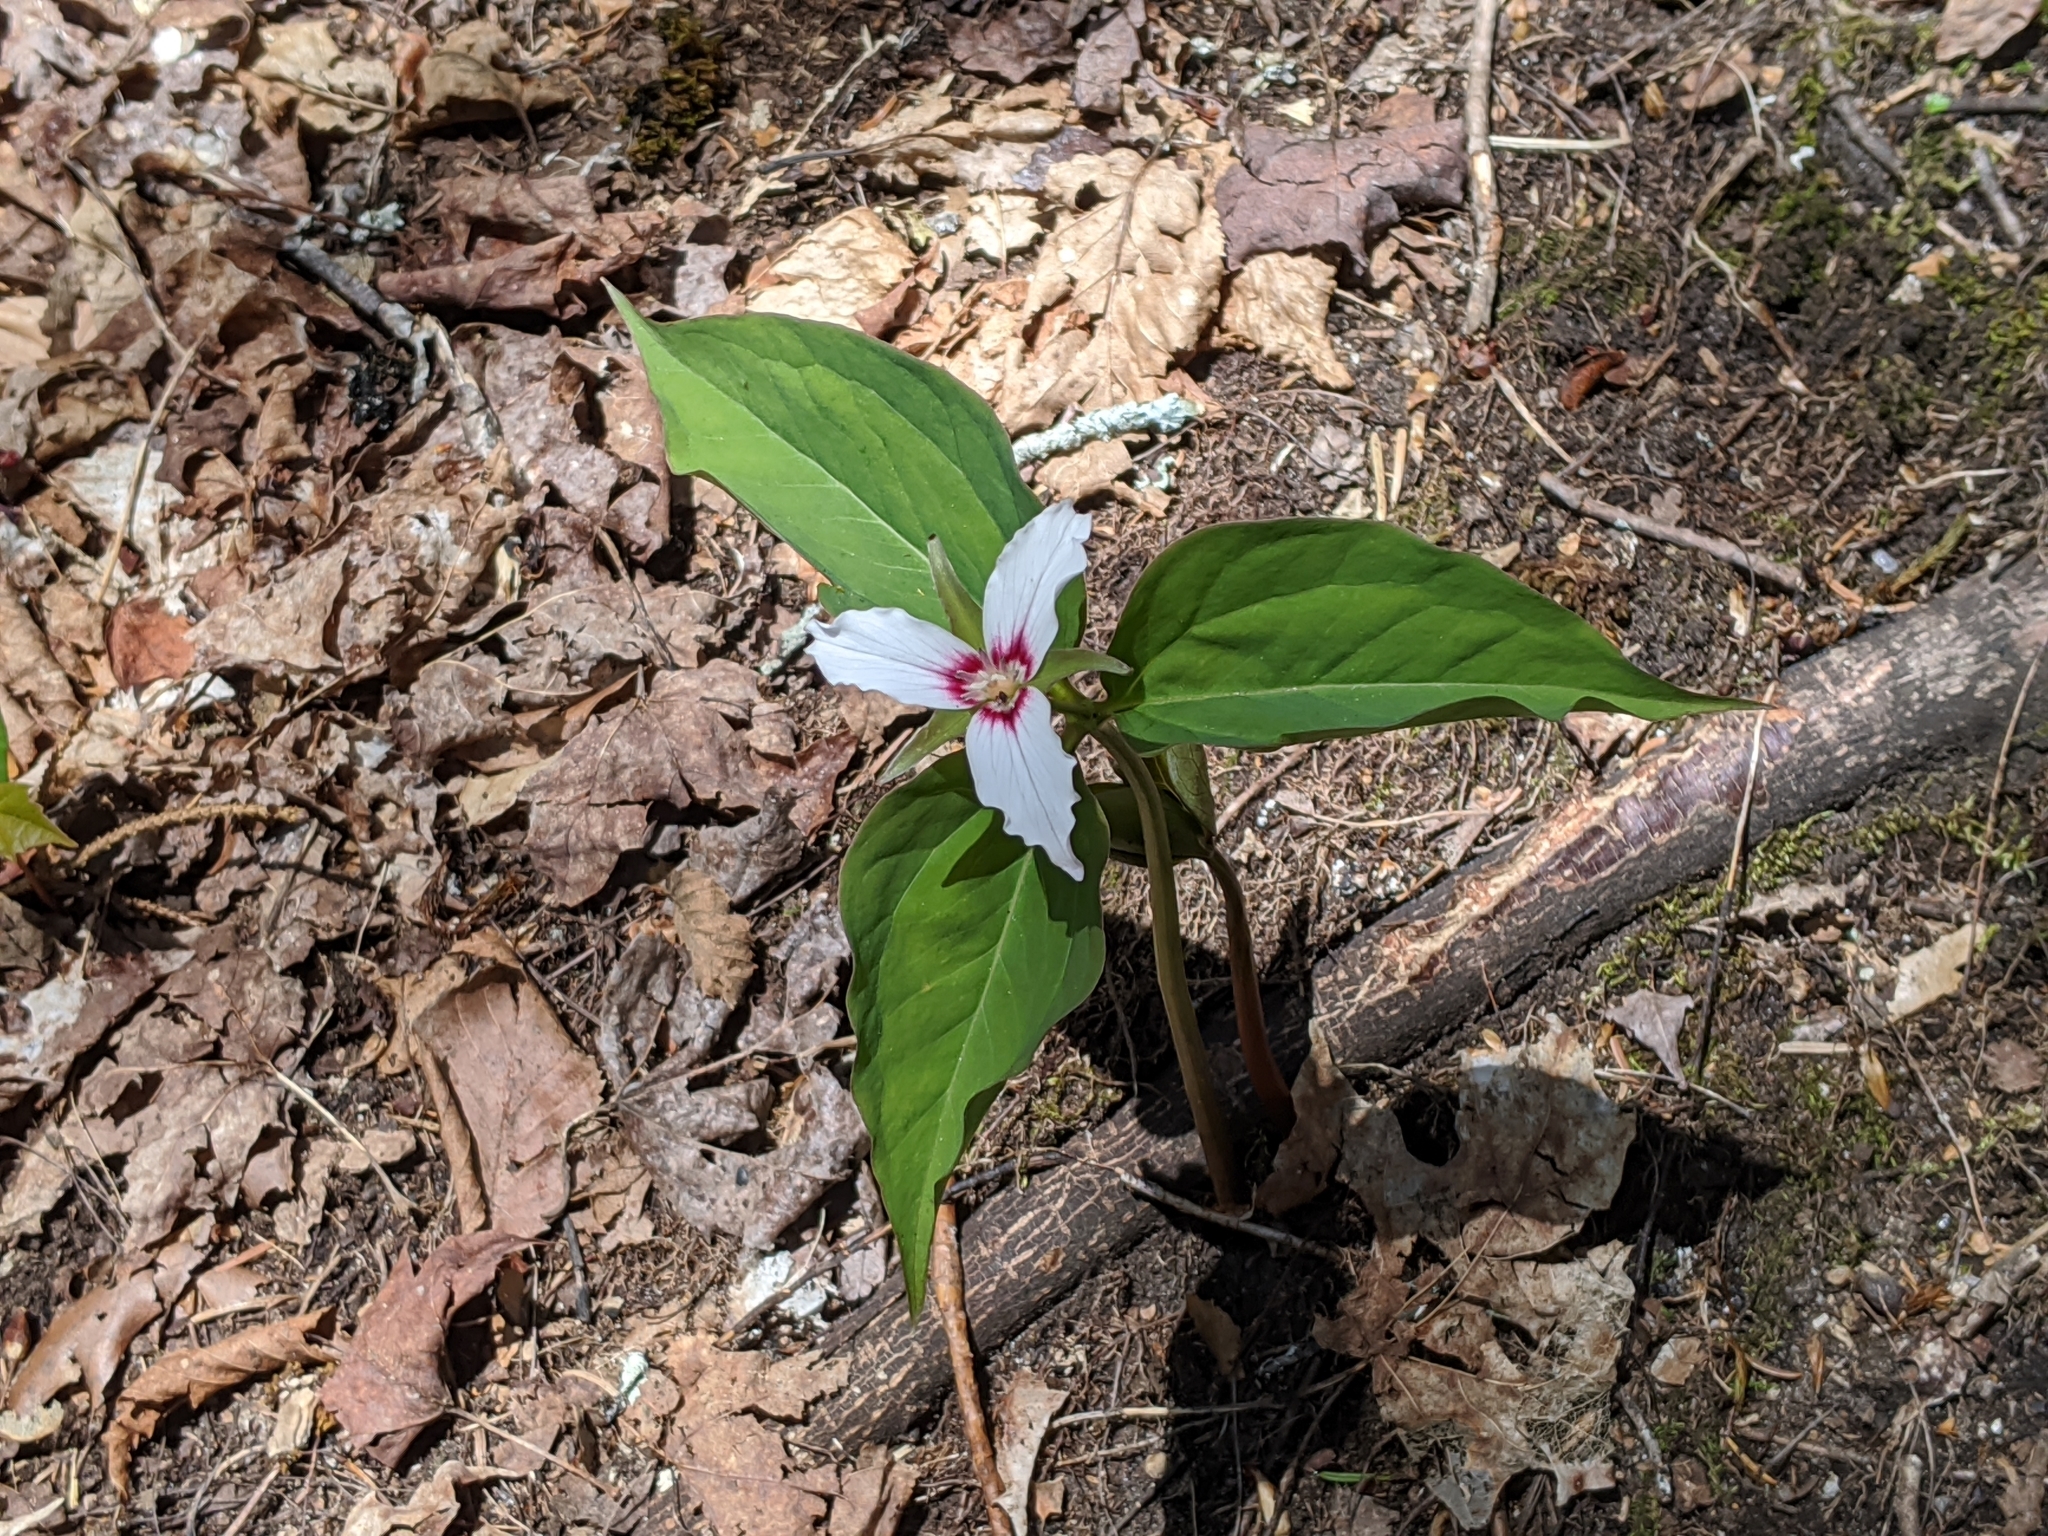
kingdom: Plantae
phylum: Tracheophyta
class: Liliopsida
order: Liliales
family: Melanthiaceae
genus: Trillium
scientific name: Trillium undulatum
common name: Paint trillium
